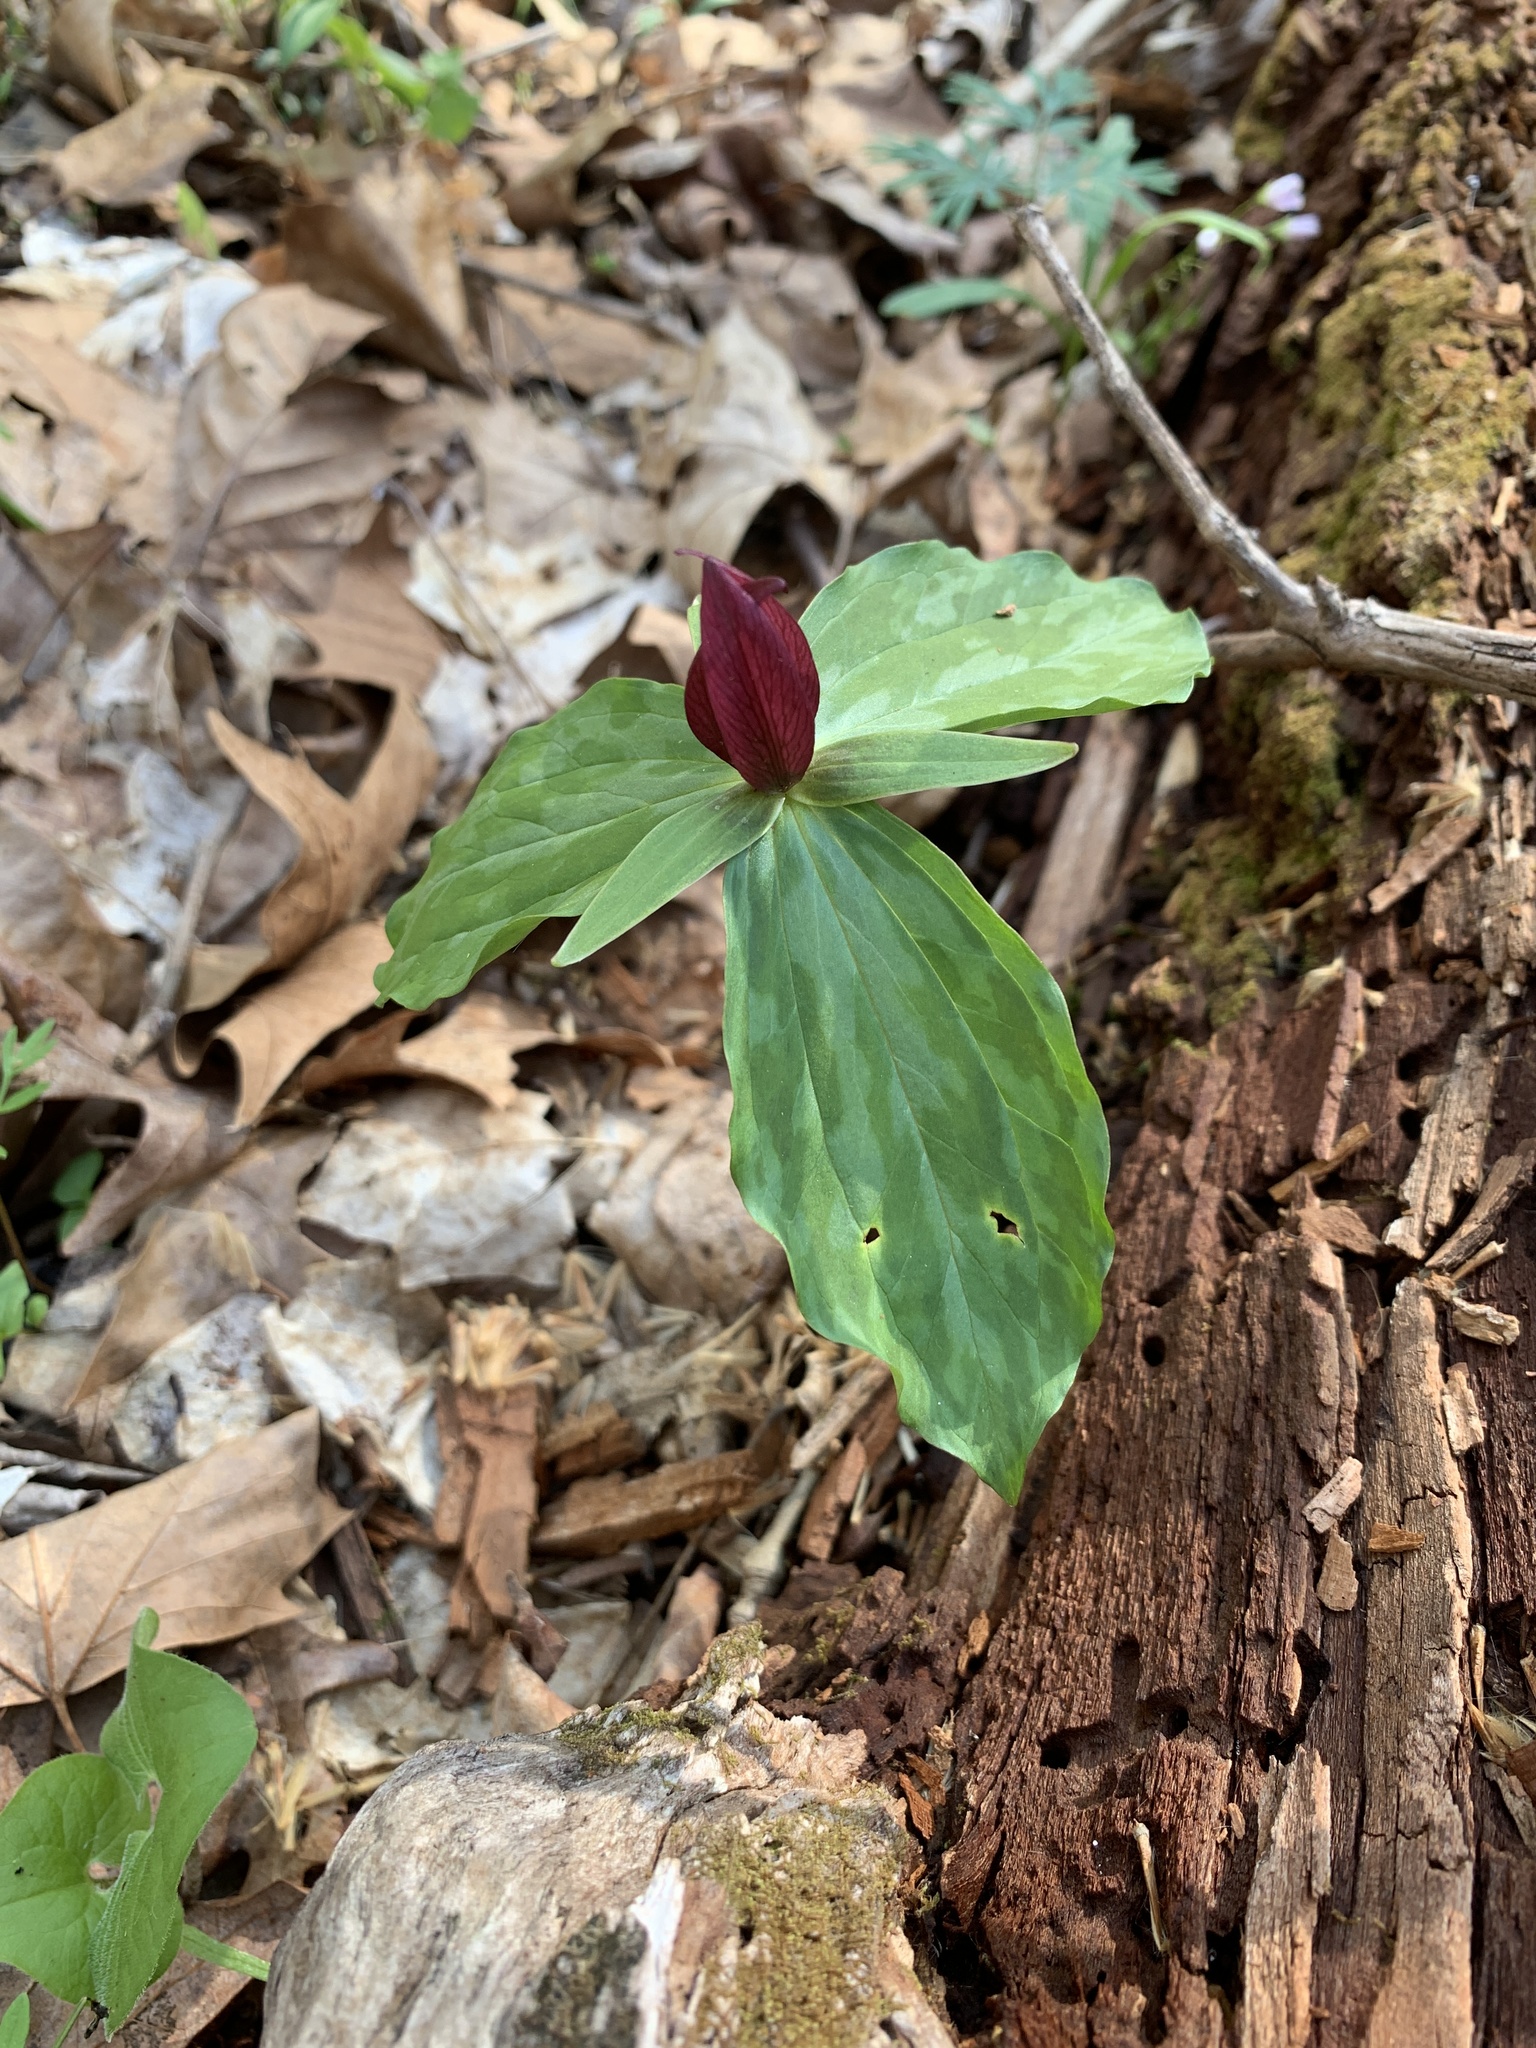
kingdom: Plantae
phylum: Tracheophyta
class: Liliopsida
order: Liliales
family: Melanthiaceae
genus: Trillium
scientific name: Trillium sessile
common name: Sessile trillium
